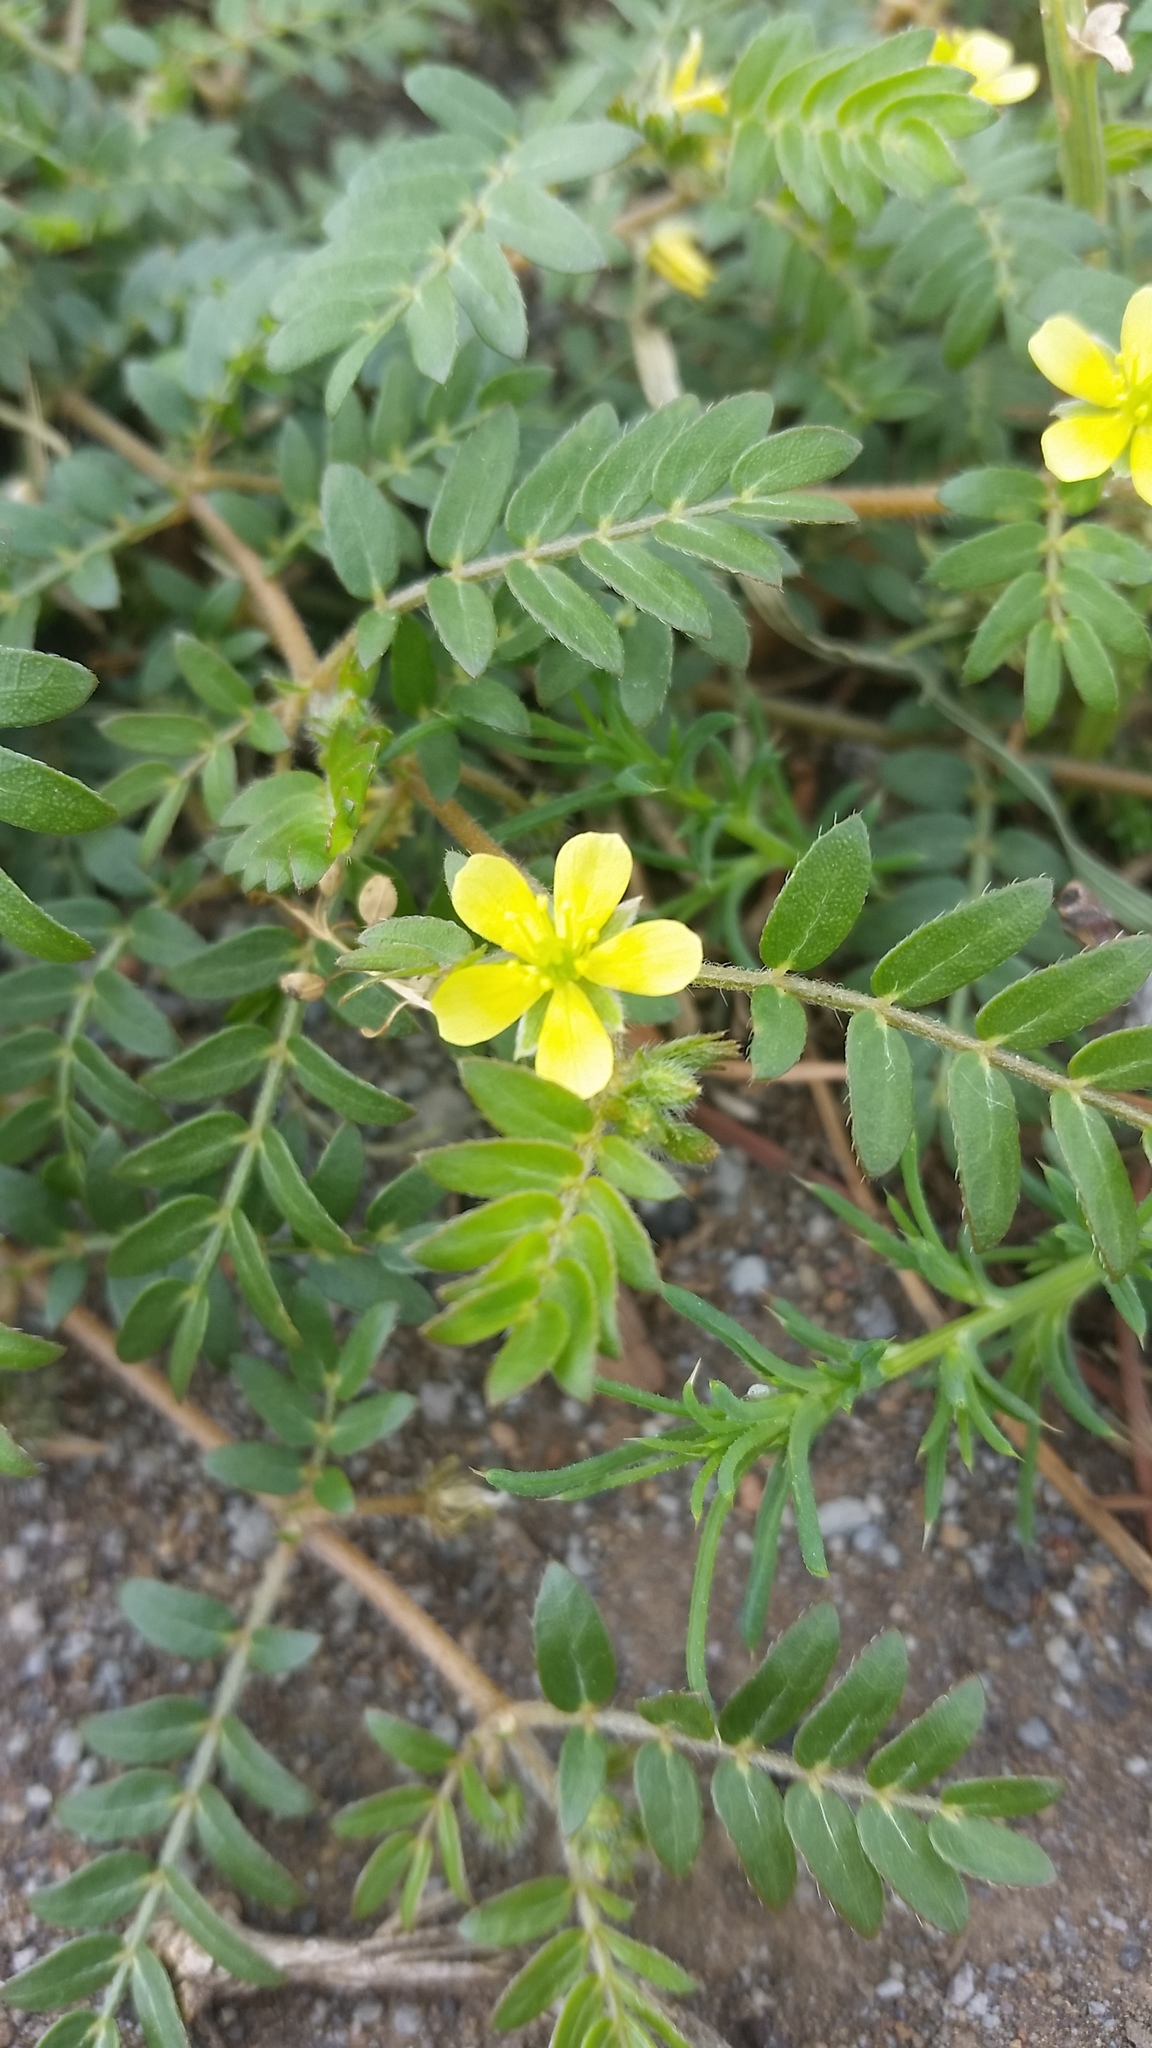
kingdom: Plantae
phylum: Tracheophyta
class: Magnoliopsida
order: Zygophyllales
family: Zygophyllaceae
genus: Tribulus
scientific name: Tribulus terrestris
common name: Puncturevine
